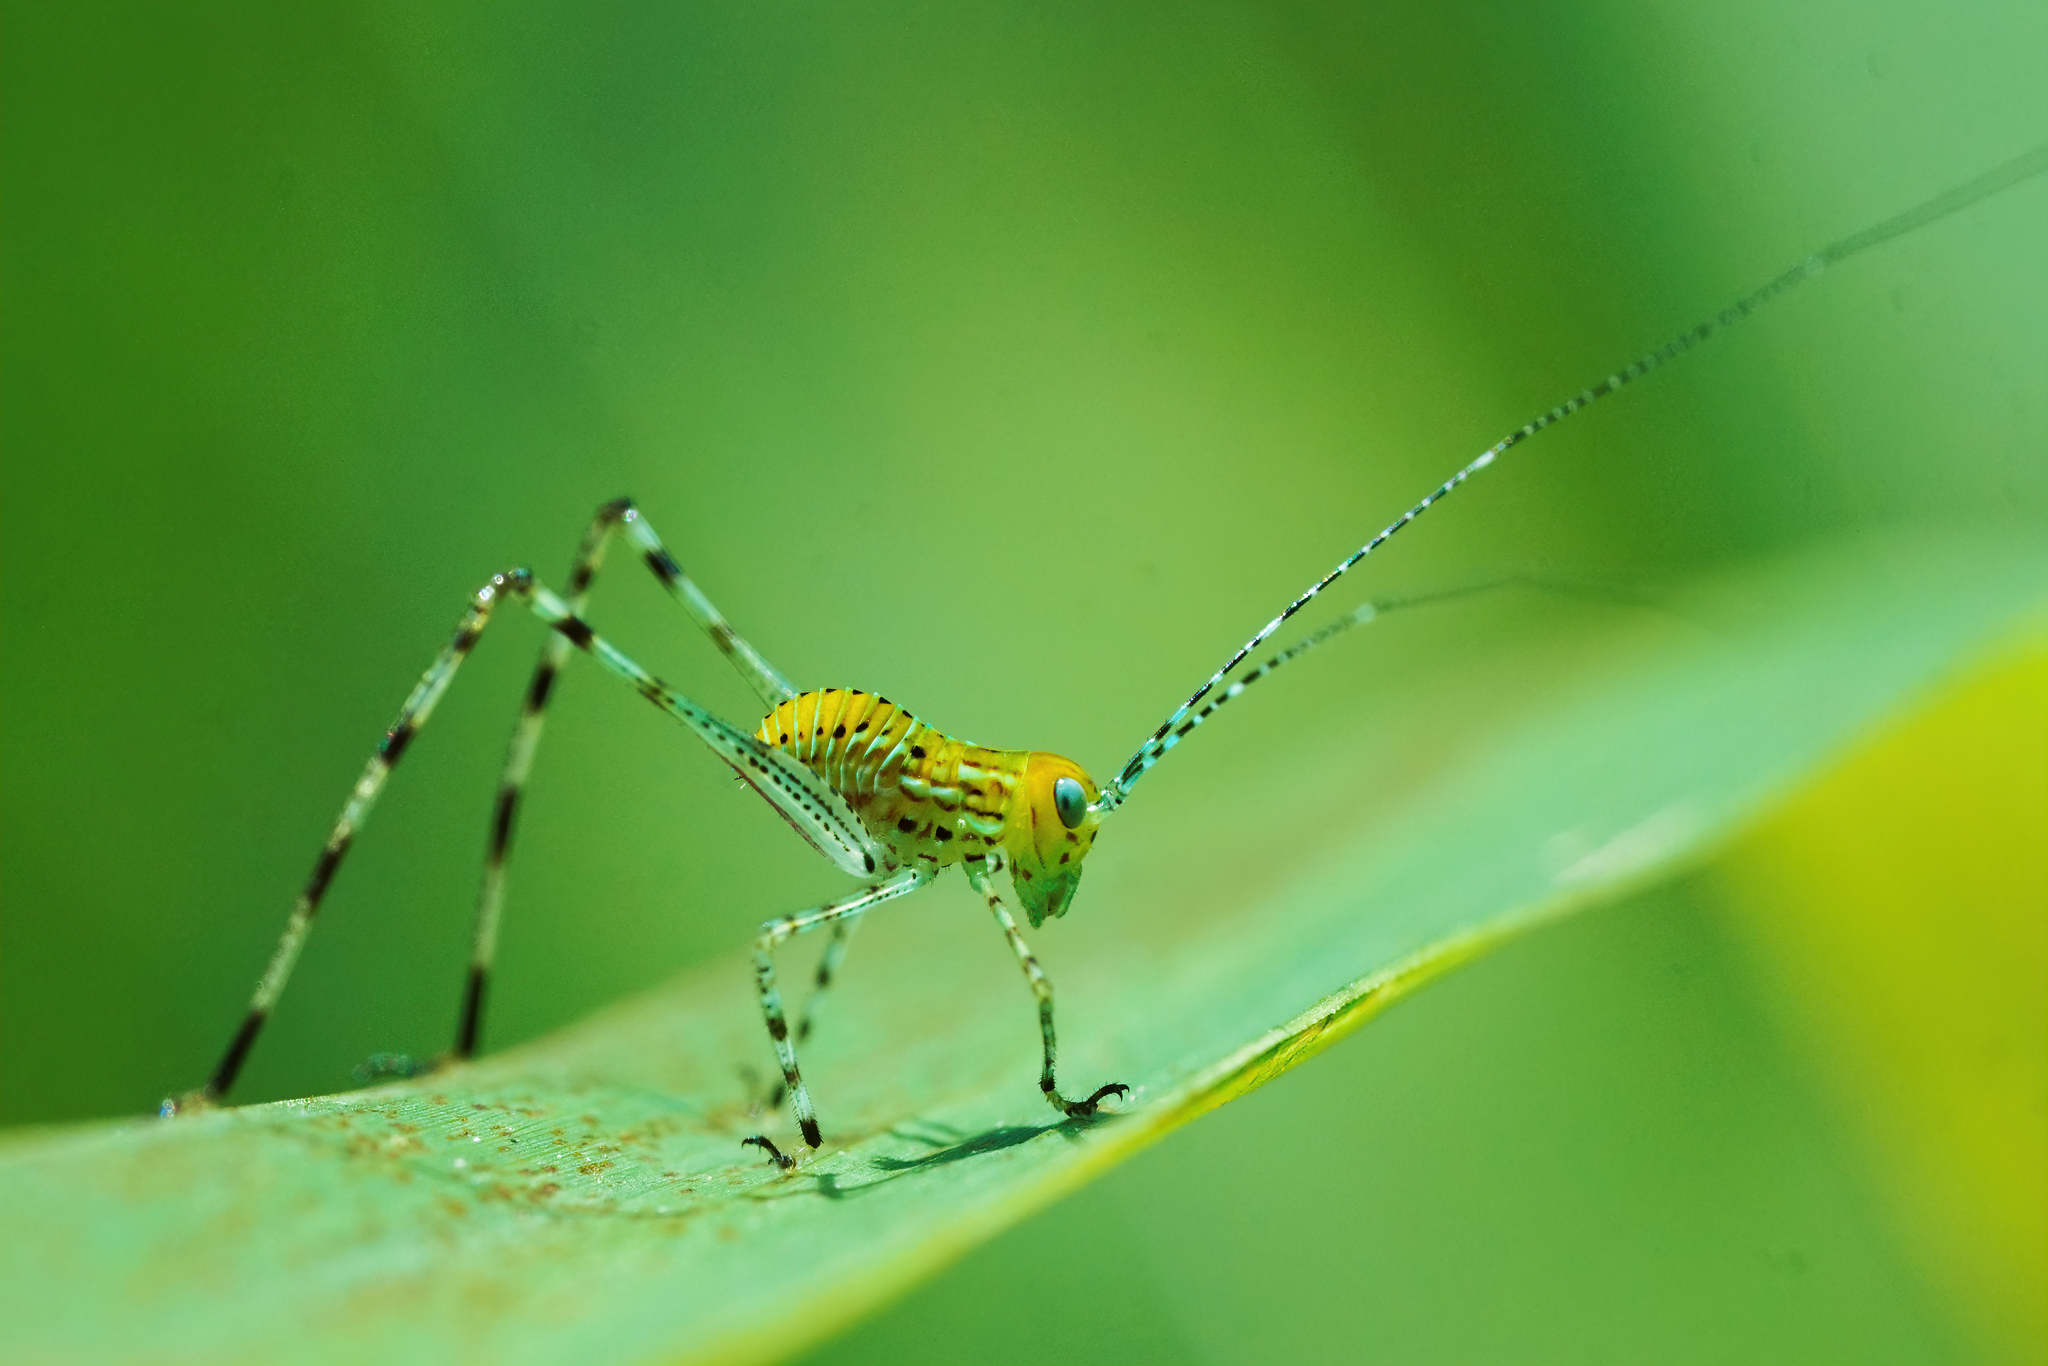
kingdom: Animalia
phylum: Arthropoda
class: Insecta
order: Orthoptera
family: Tettigoniidae
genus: Stilpnochlora
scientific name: Stilpnochlora couloniana
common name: Giant katydid
